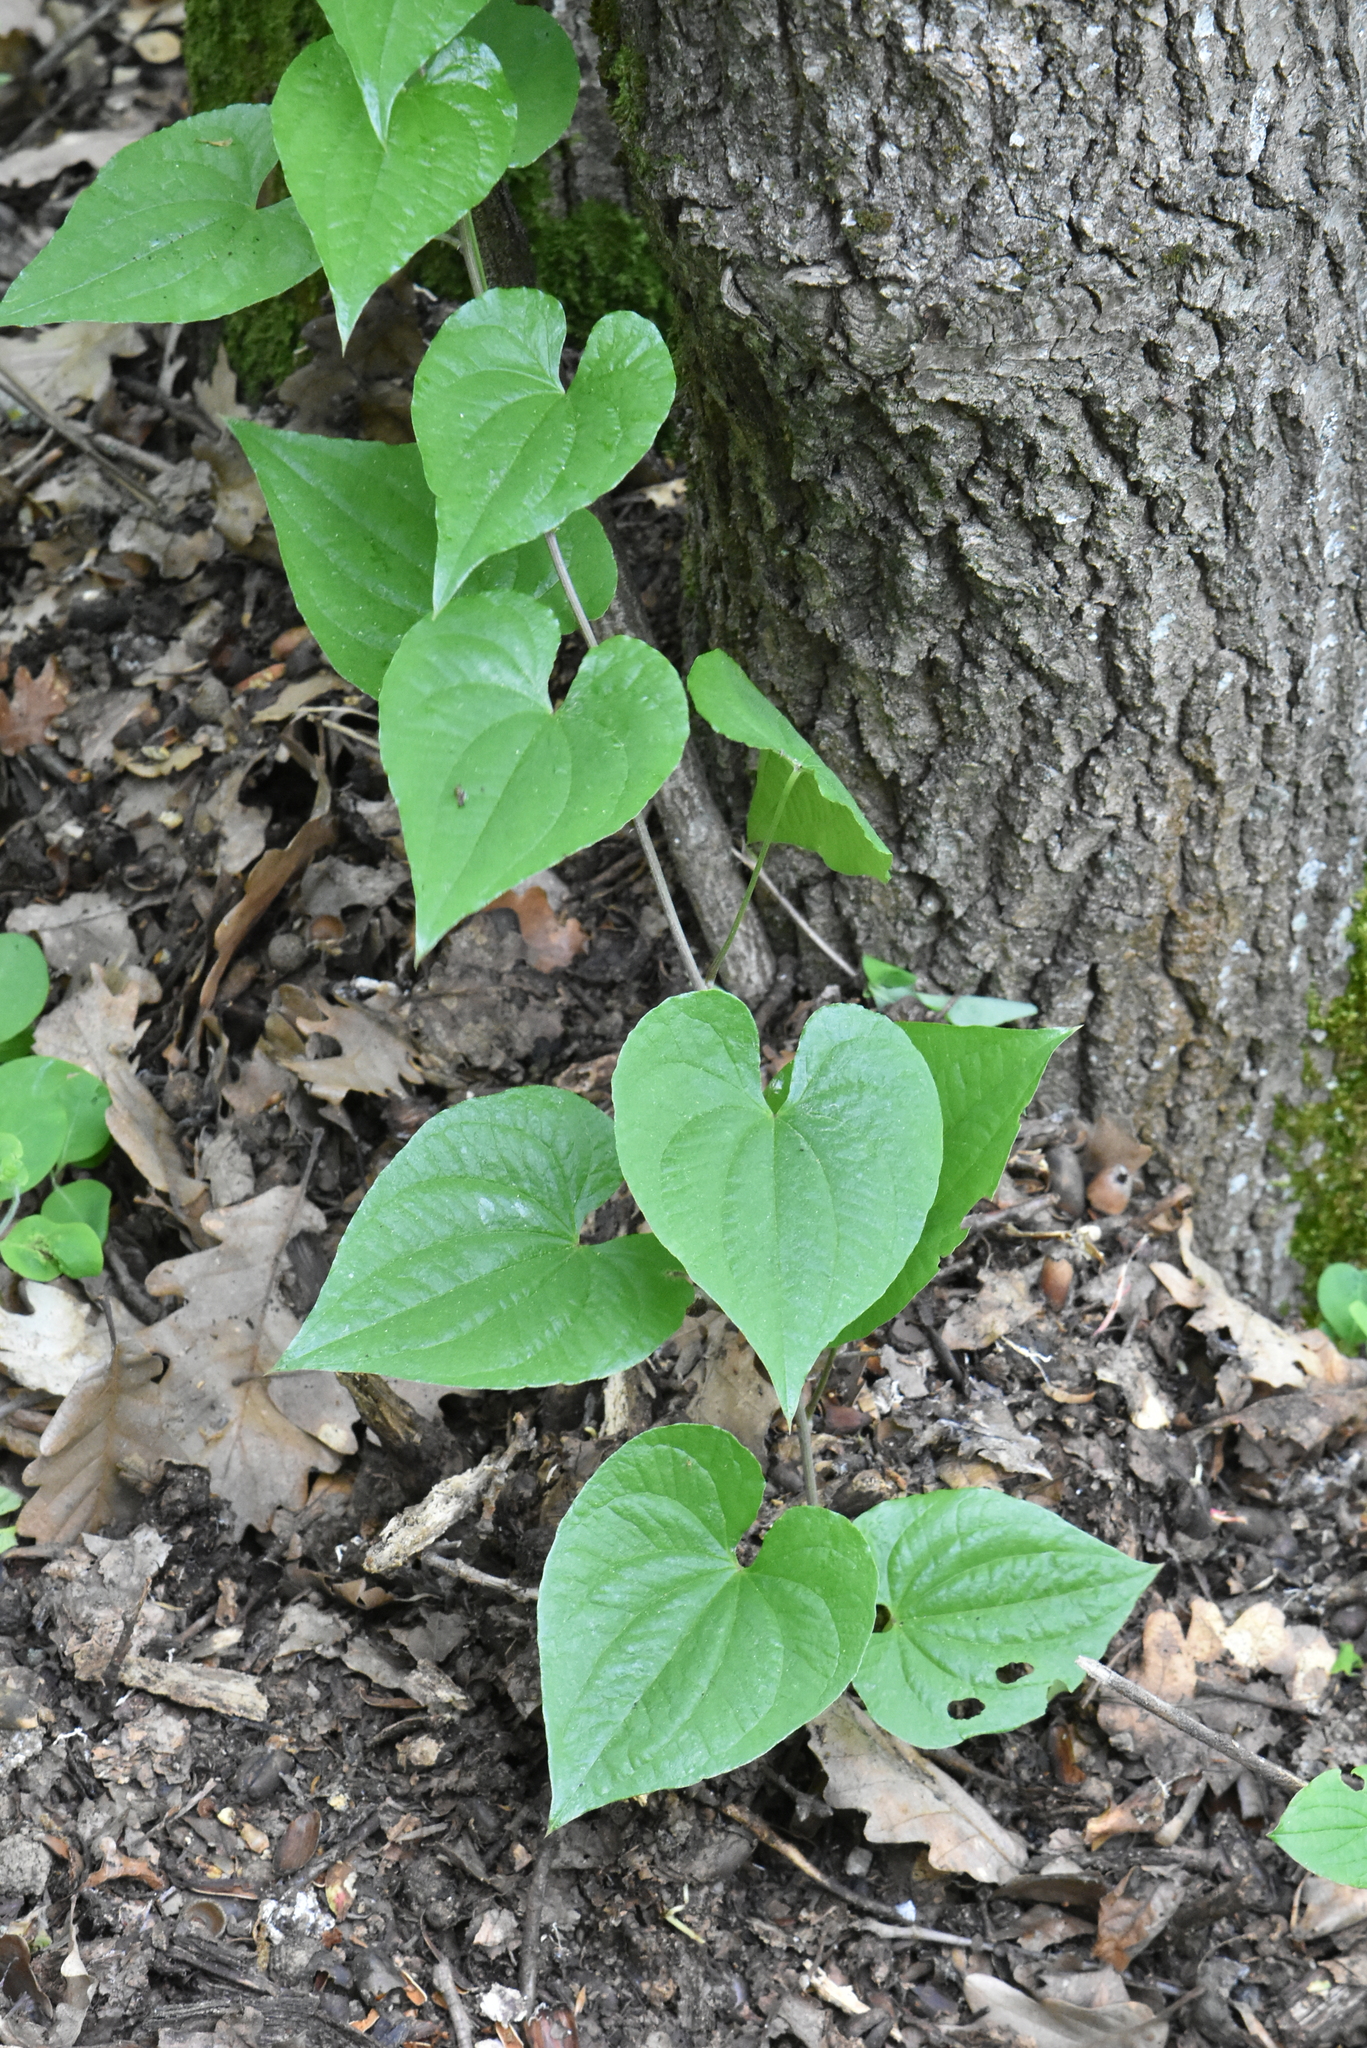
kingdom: Plantae
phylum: Tracheophyta
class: Liliopsida
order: Dioscoreales
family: Dioscoreaceae
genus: Dioscorea
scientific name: Dioscorea communis
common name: Black-bindweed
